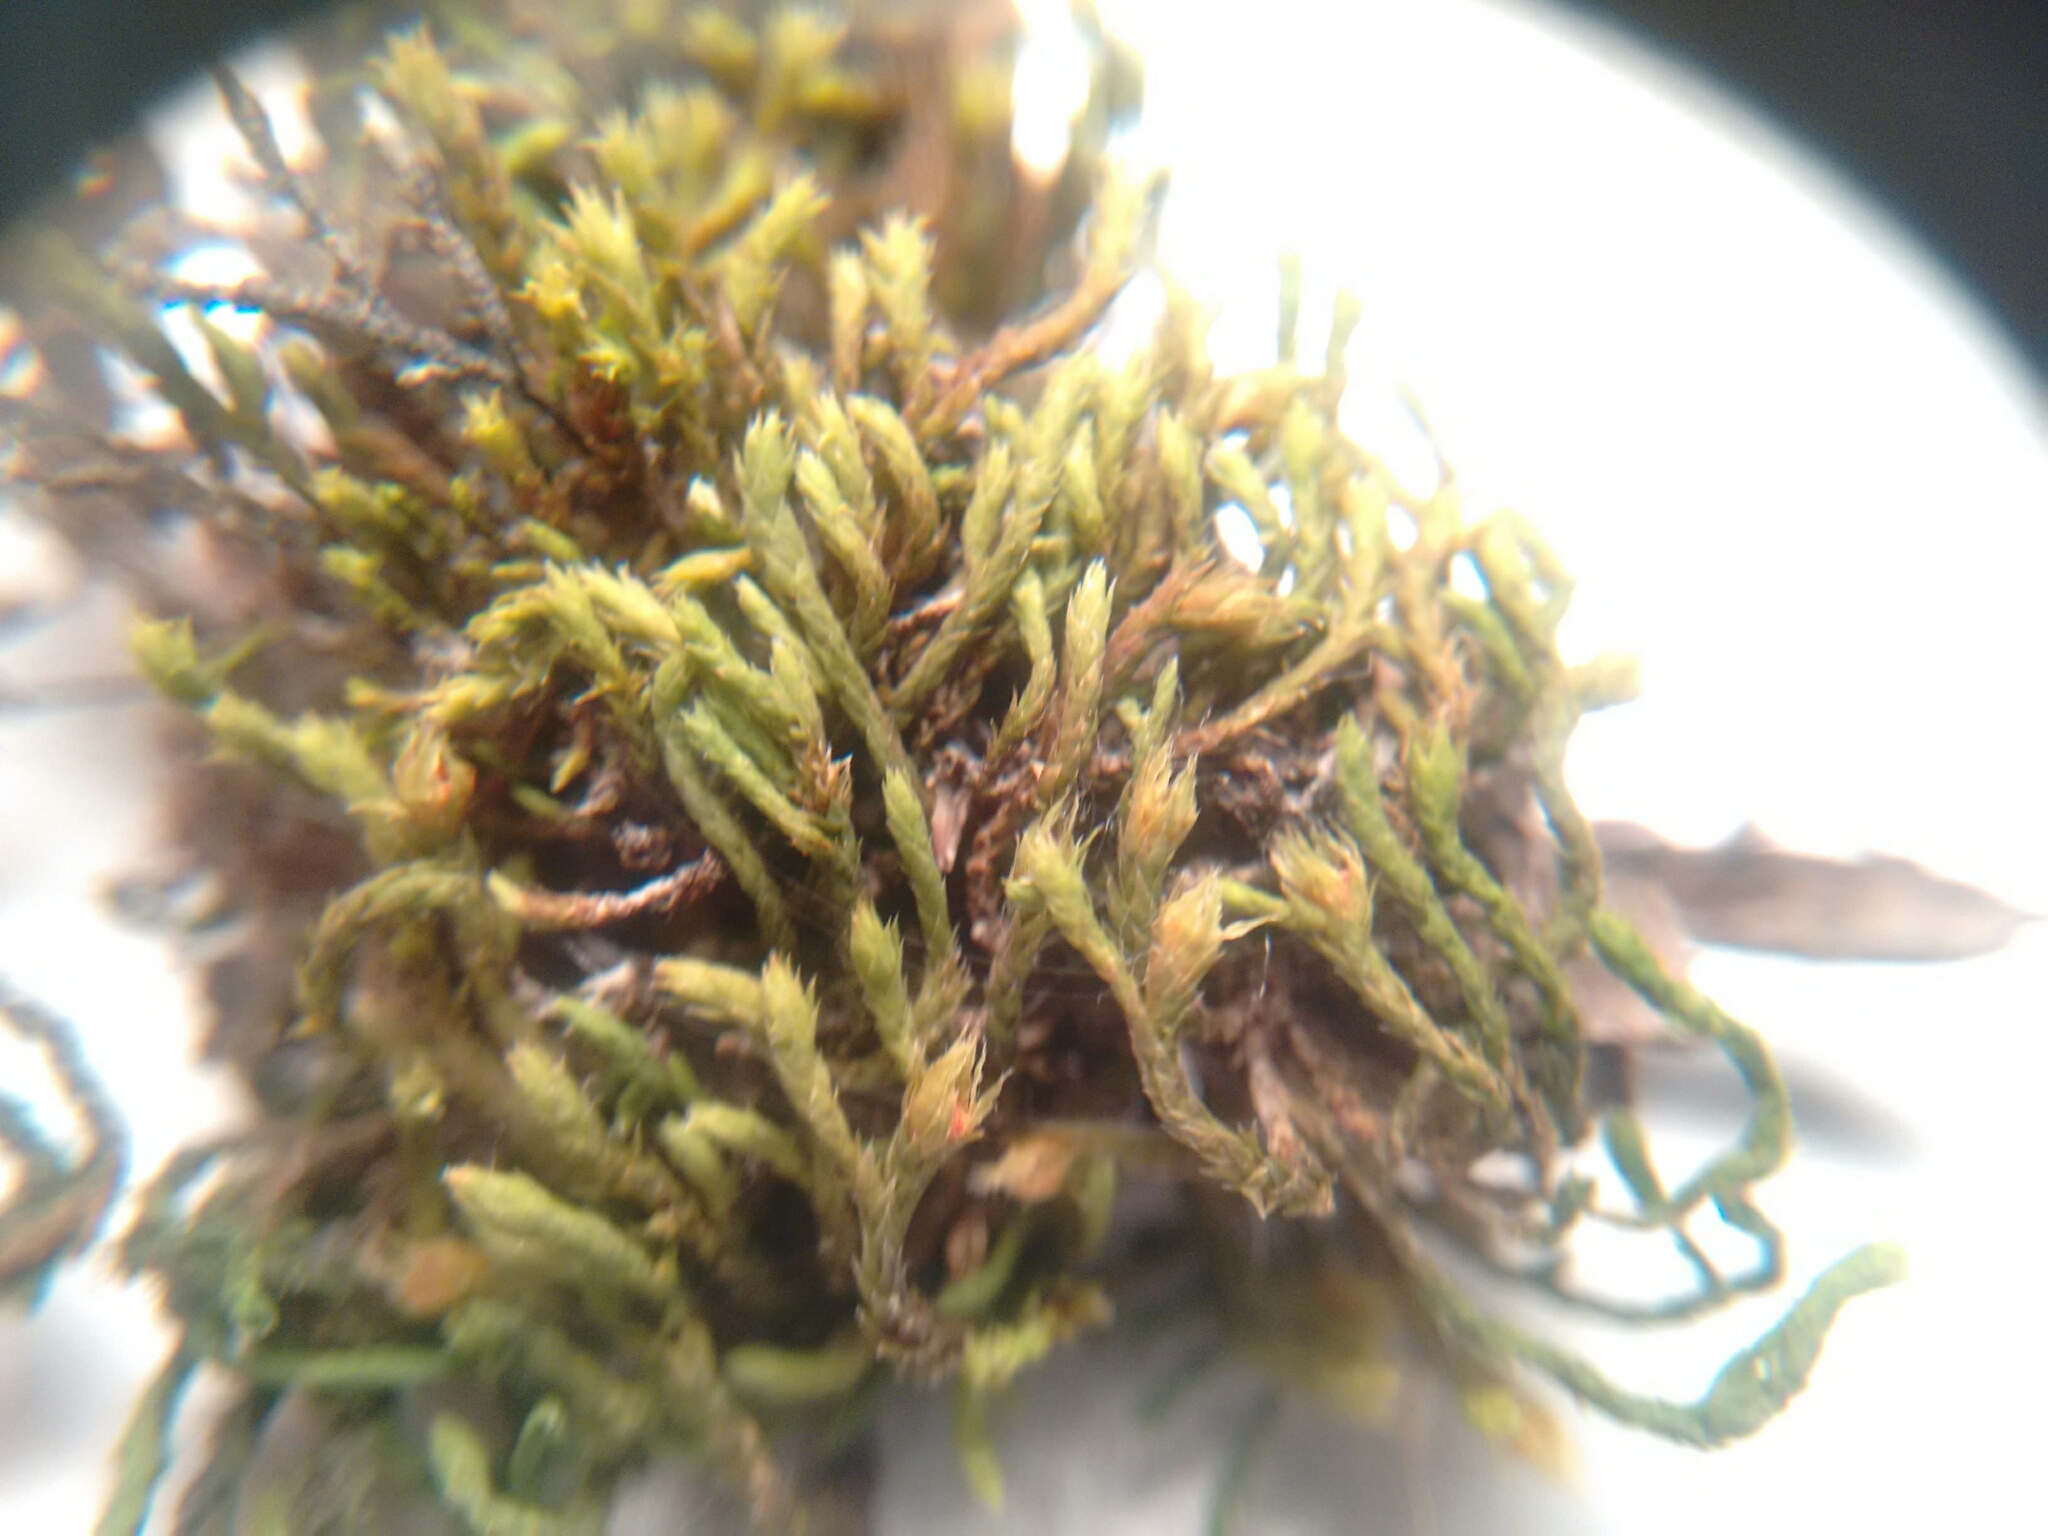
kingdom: Plantae
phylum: Bryophyta
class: Bryopsida
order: Hedwigiales
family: Hedwigiaceae
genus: Hedwigia
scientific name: Hedwigia ciliata
